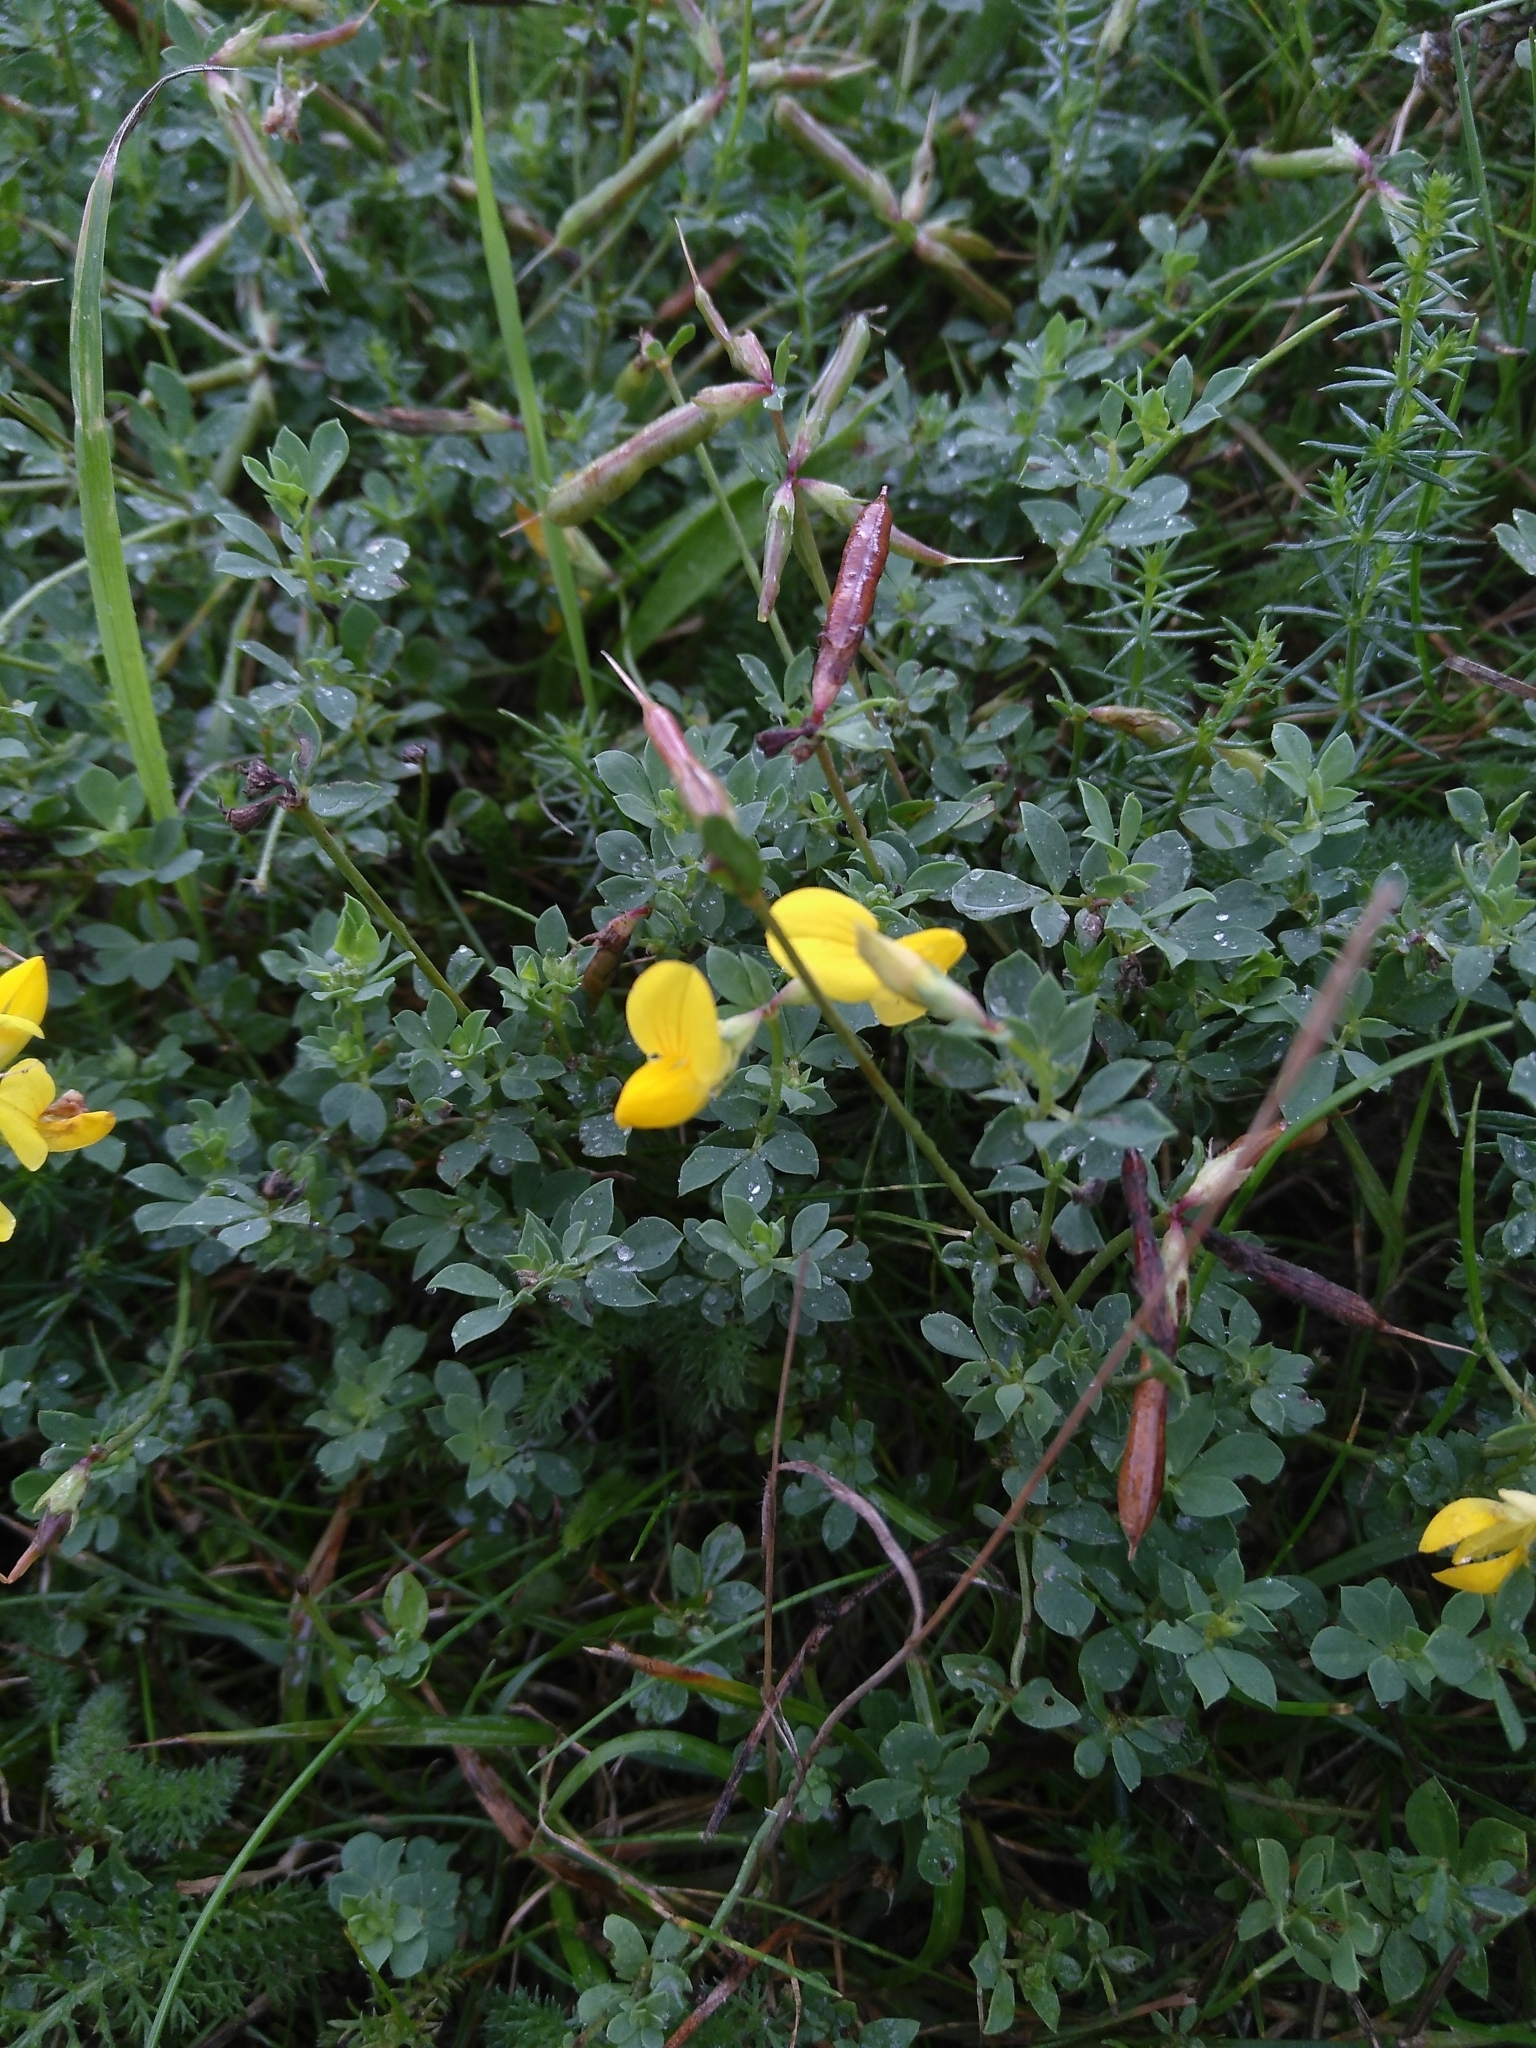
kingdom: Plantae
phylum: Tracheophyta
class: Magnoliopsida
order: Fabales
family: Fabaceae
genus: Lotus
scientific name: Lotus corniculatus
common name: Common bird's-foot-trefoil
